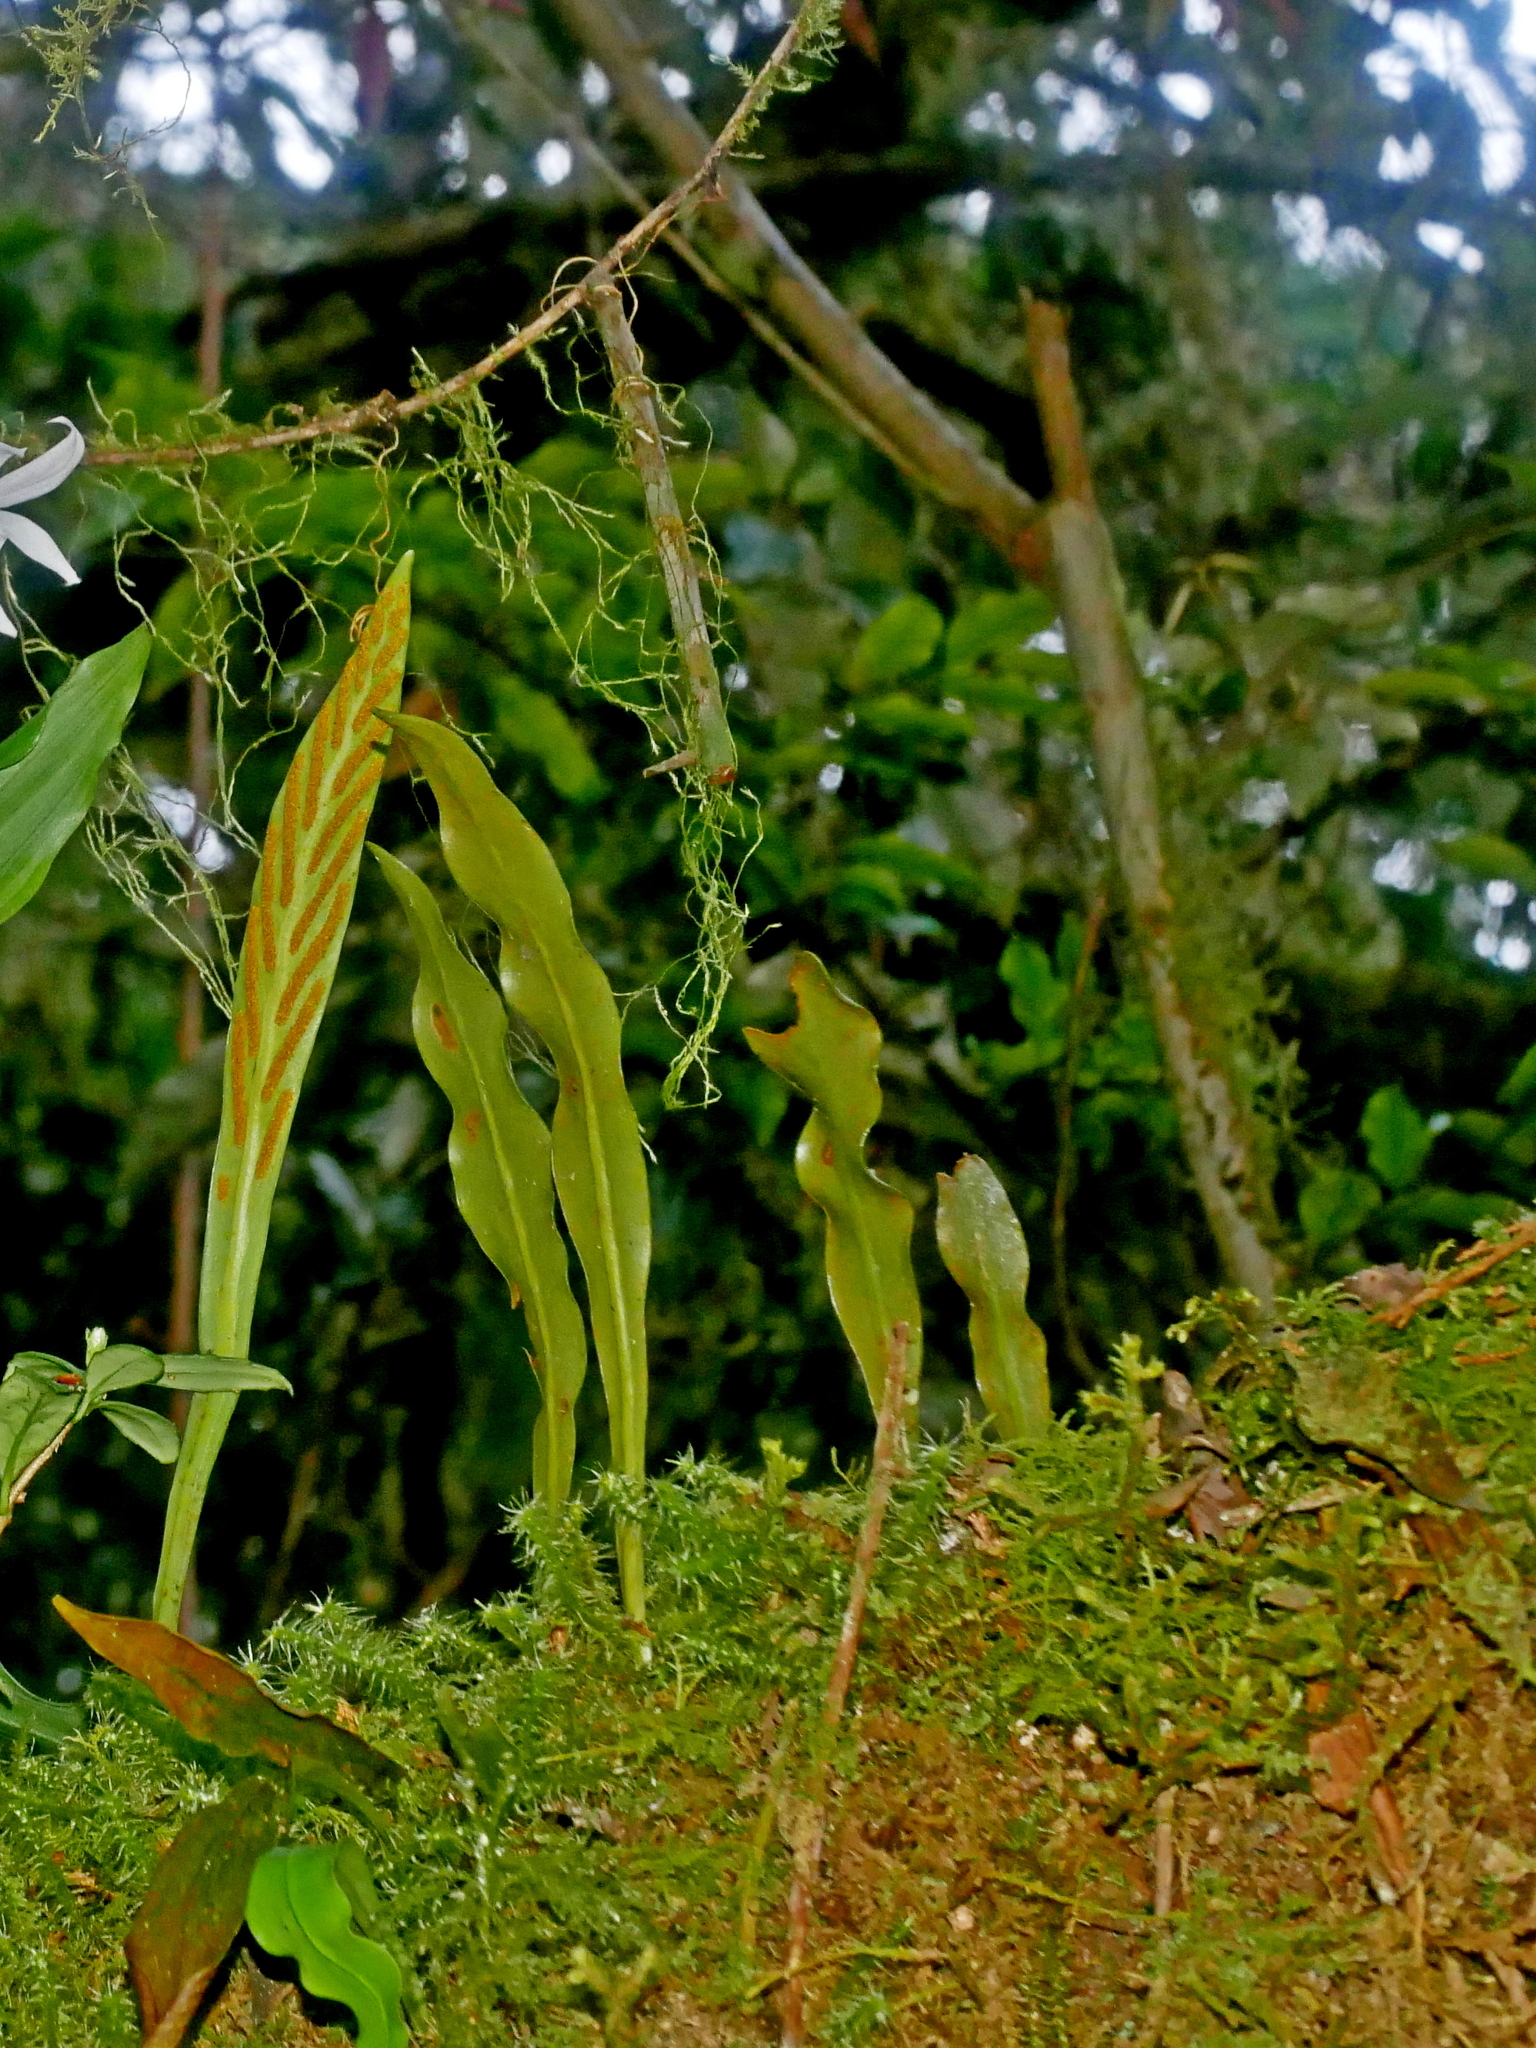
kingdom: Plantae
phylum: Tracheophyta
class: Polypodiopsida
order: Polypodiales
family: Polypodiaceae
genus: Loxogramme
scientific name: Loxogramme salicifolia
